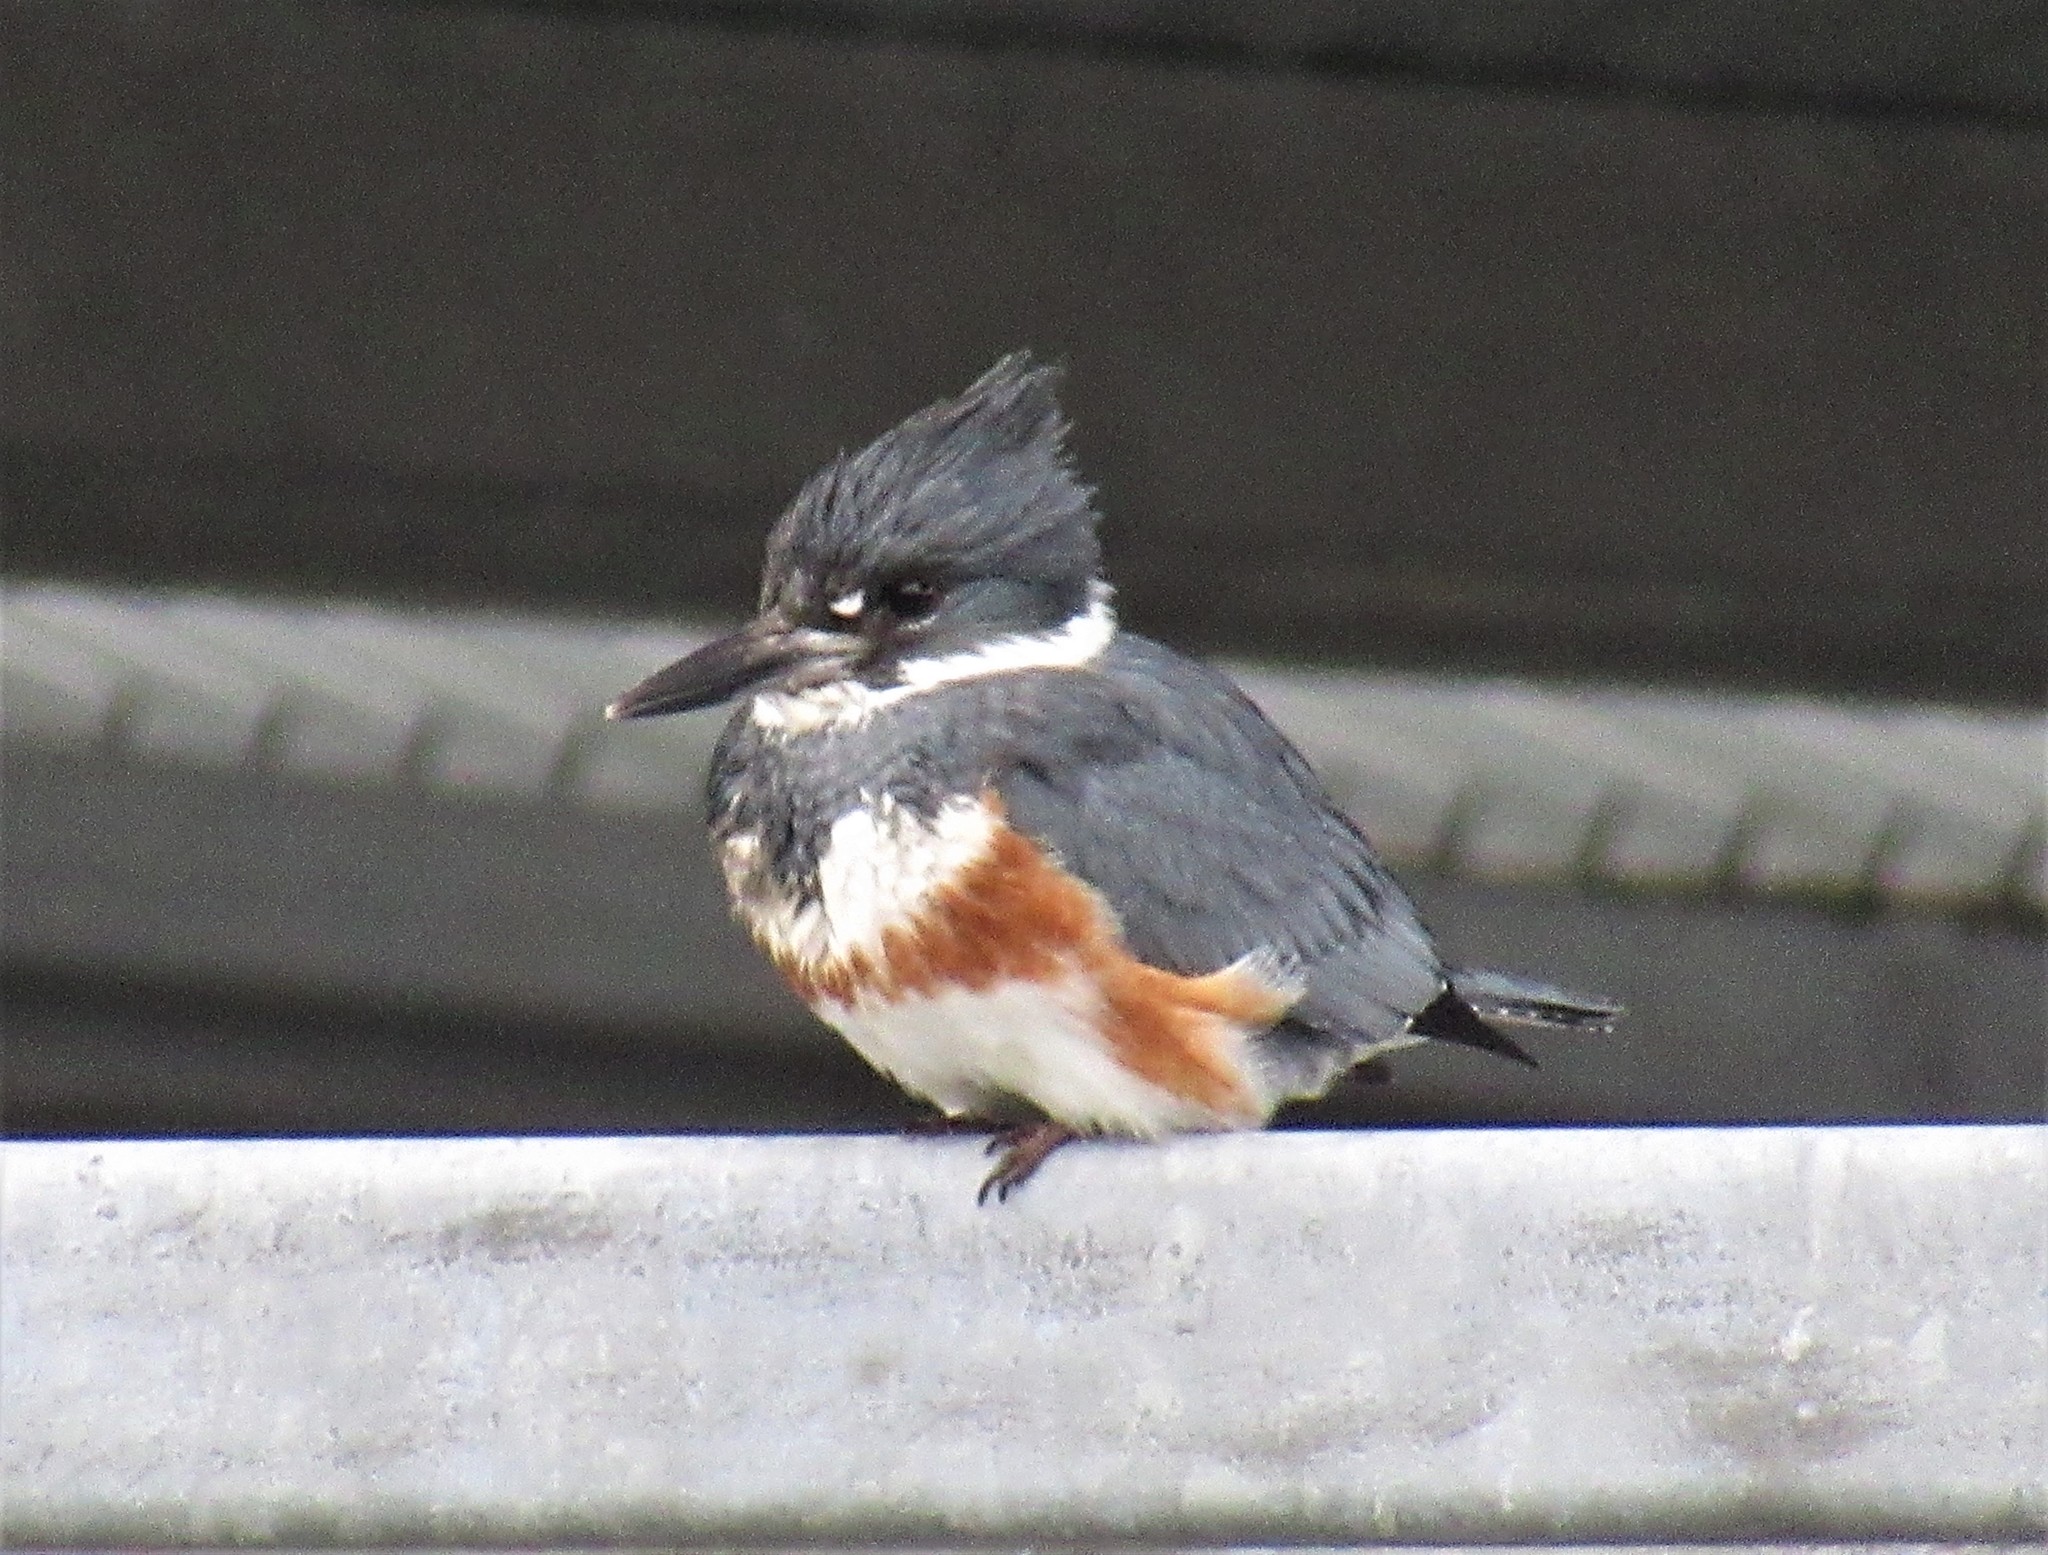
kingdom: Animalia
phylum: Chordata
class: Aves
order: Coraciiformes
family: Alcedinidae
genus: Megaceryle
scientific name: Megaceryle alcyon
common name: Belted kingfisher
